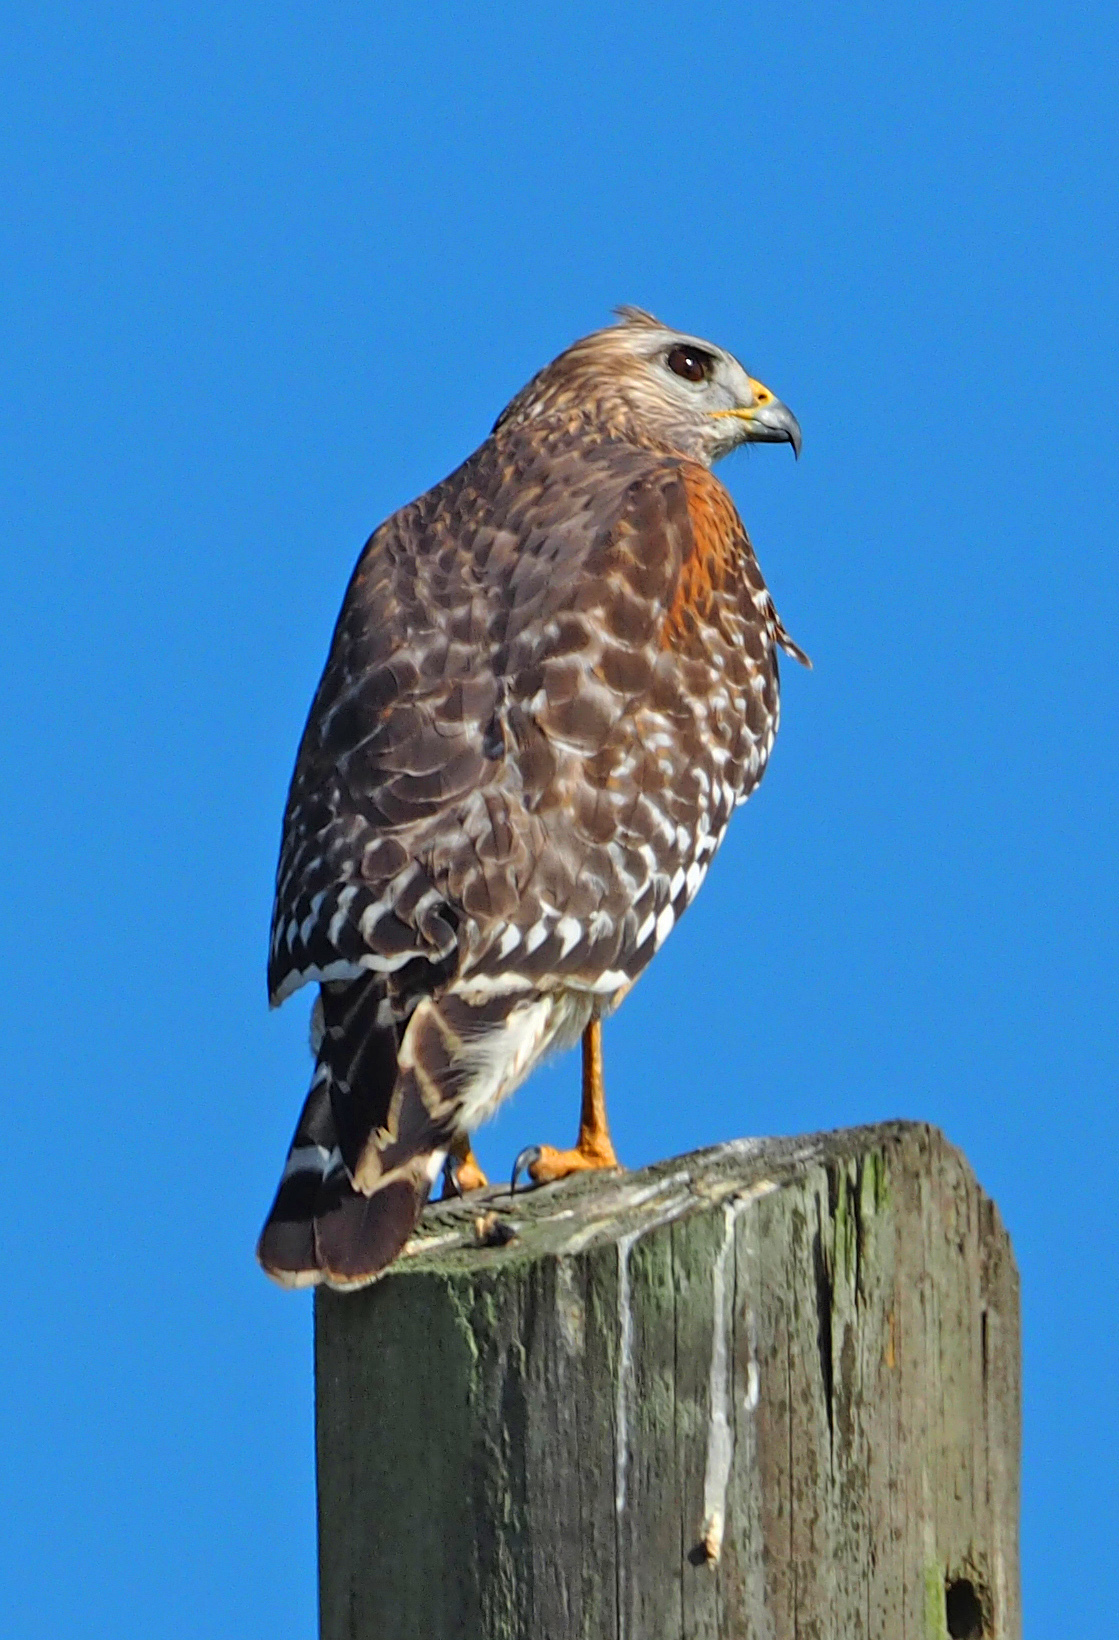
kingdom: Animalia
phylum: Chordata
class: Aves
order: Accipitriformes
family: Accipitridae
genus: Buteo
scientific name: Buteo lineatus
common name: Red-shouldered hawk
